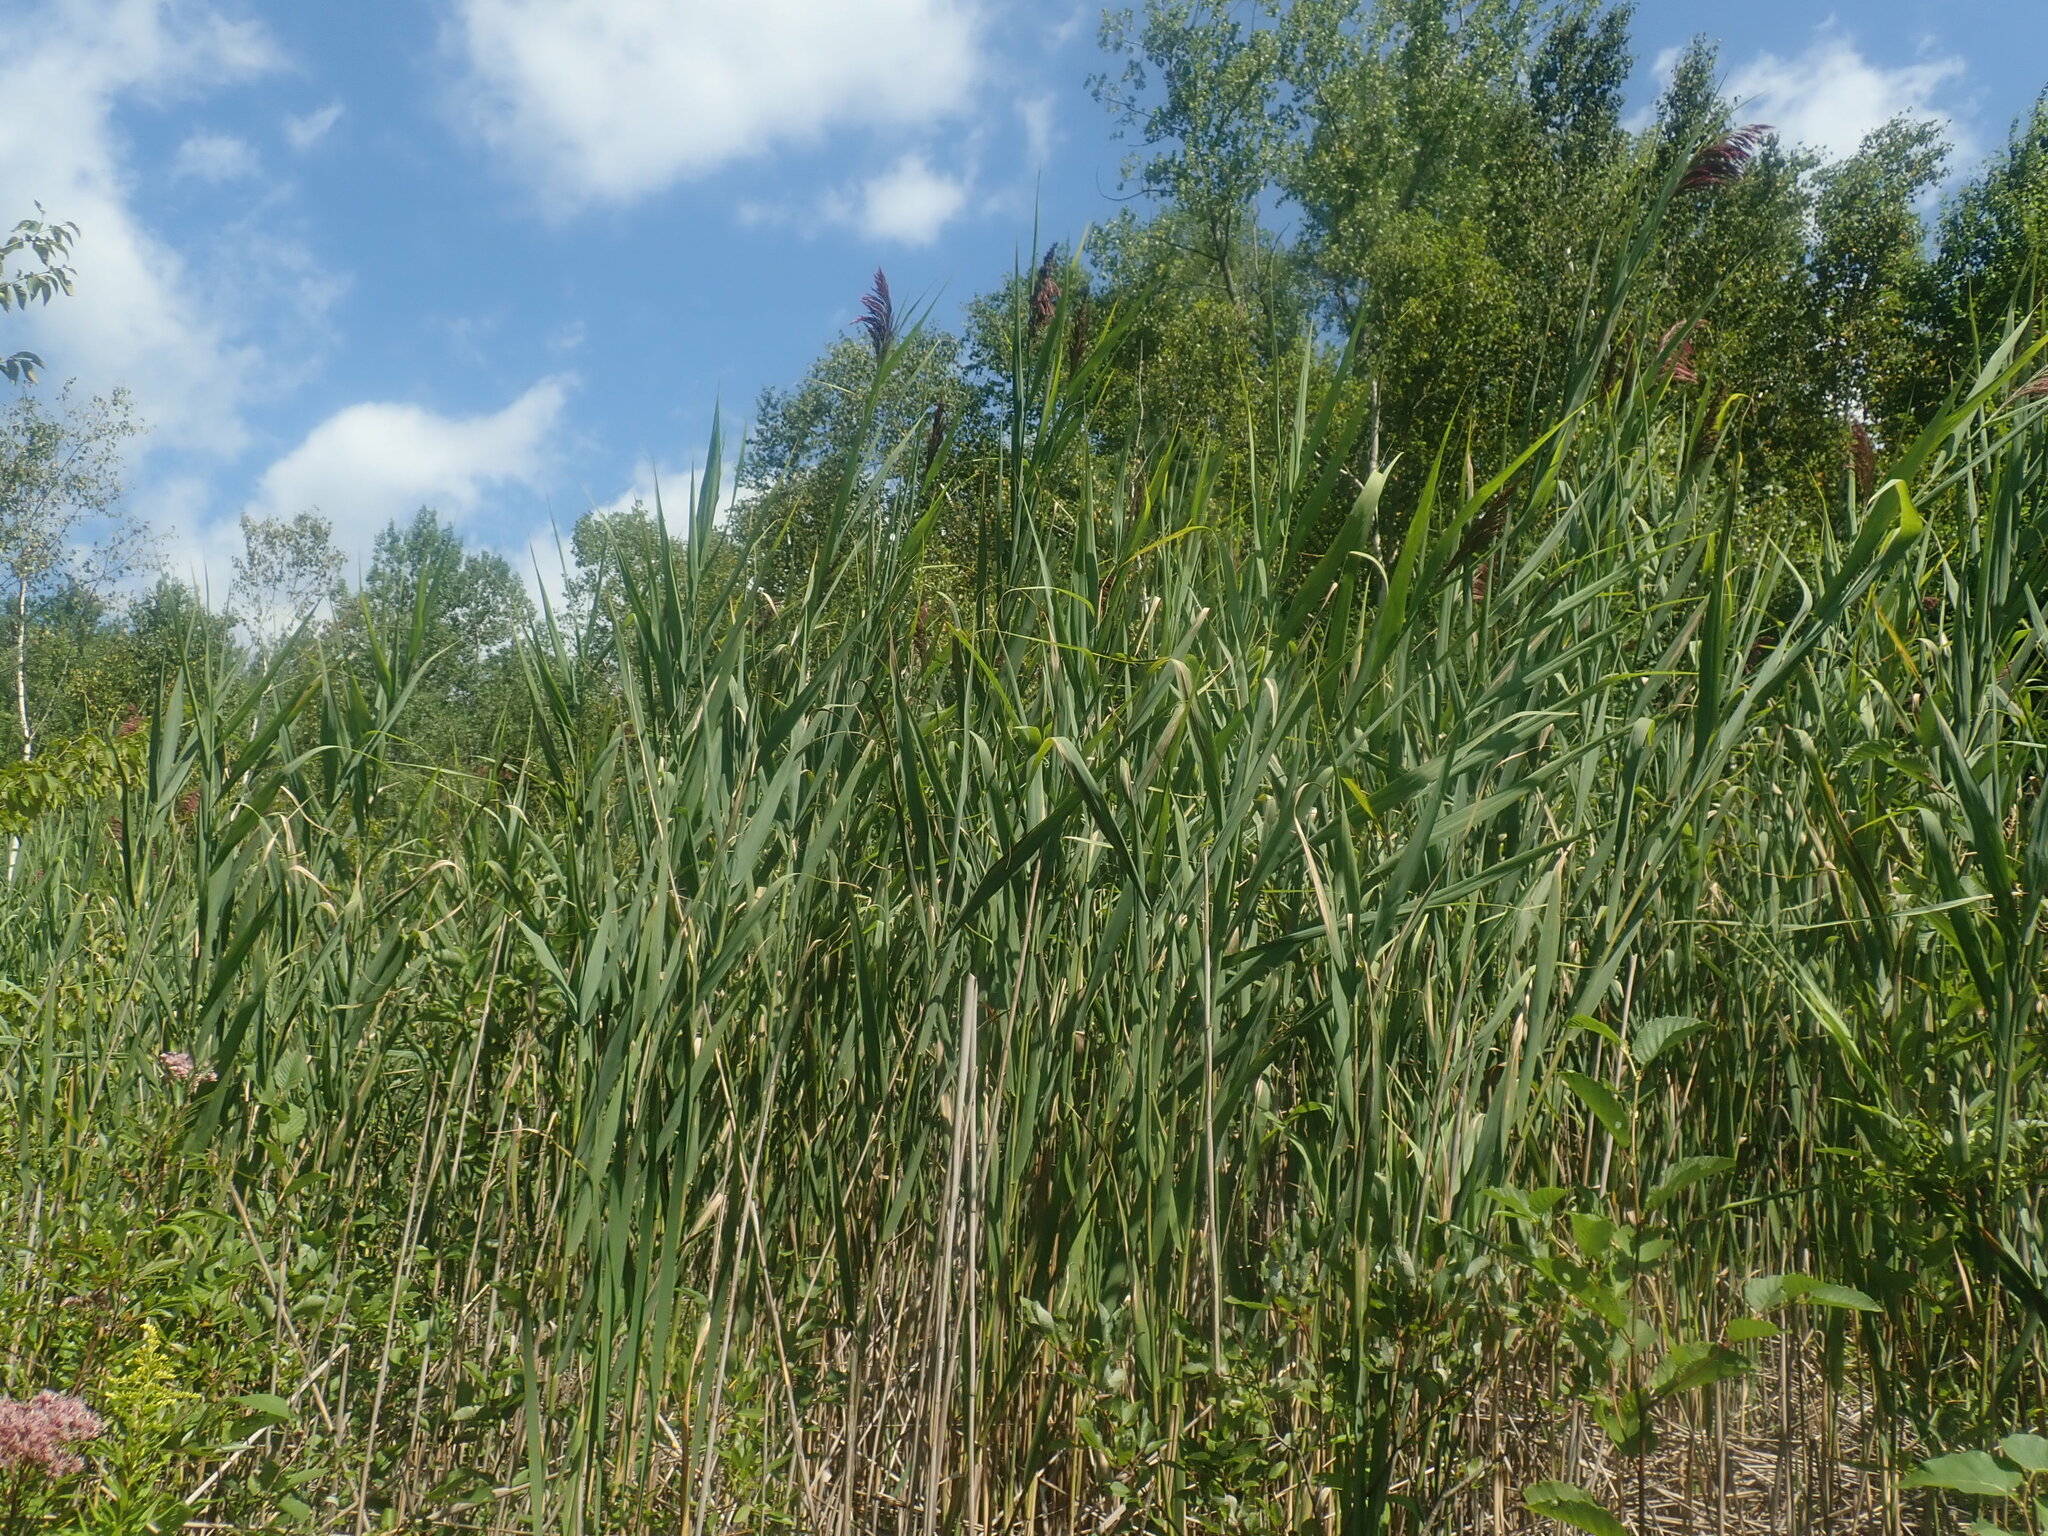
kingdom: Plantae
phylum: Tracheophyta
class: Liliopsida
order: Poales
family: Poaceae
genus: Phragmites
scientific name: Phragmites australis
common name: Common reed
